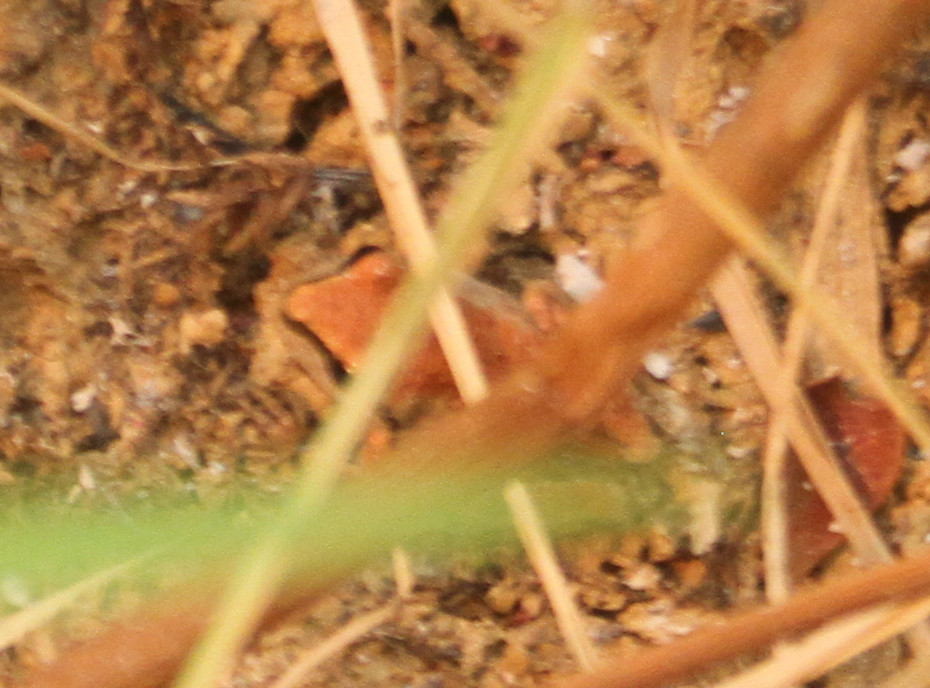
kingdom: Animalia
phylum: Chordata
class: Amphibia
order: Anura
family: Hylidae
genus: Pseudacris
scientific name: Pseudacris regilla
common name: Pacific chorus frog
